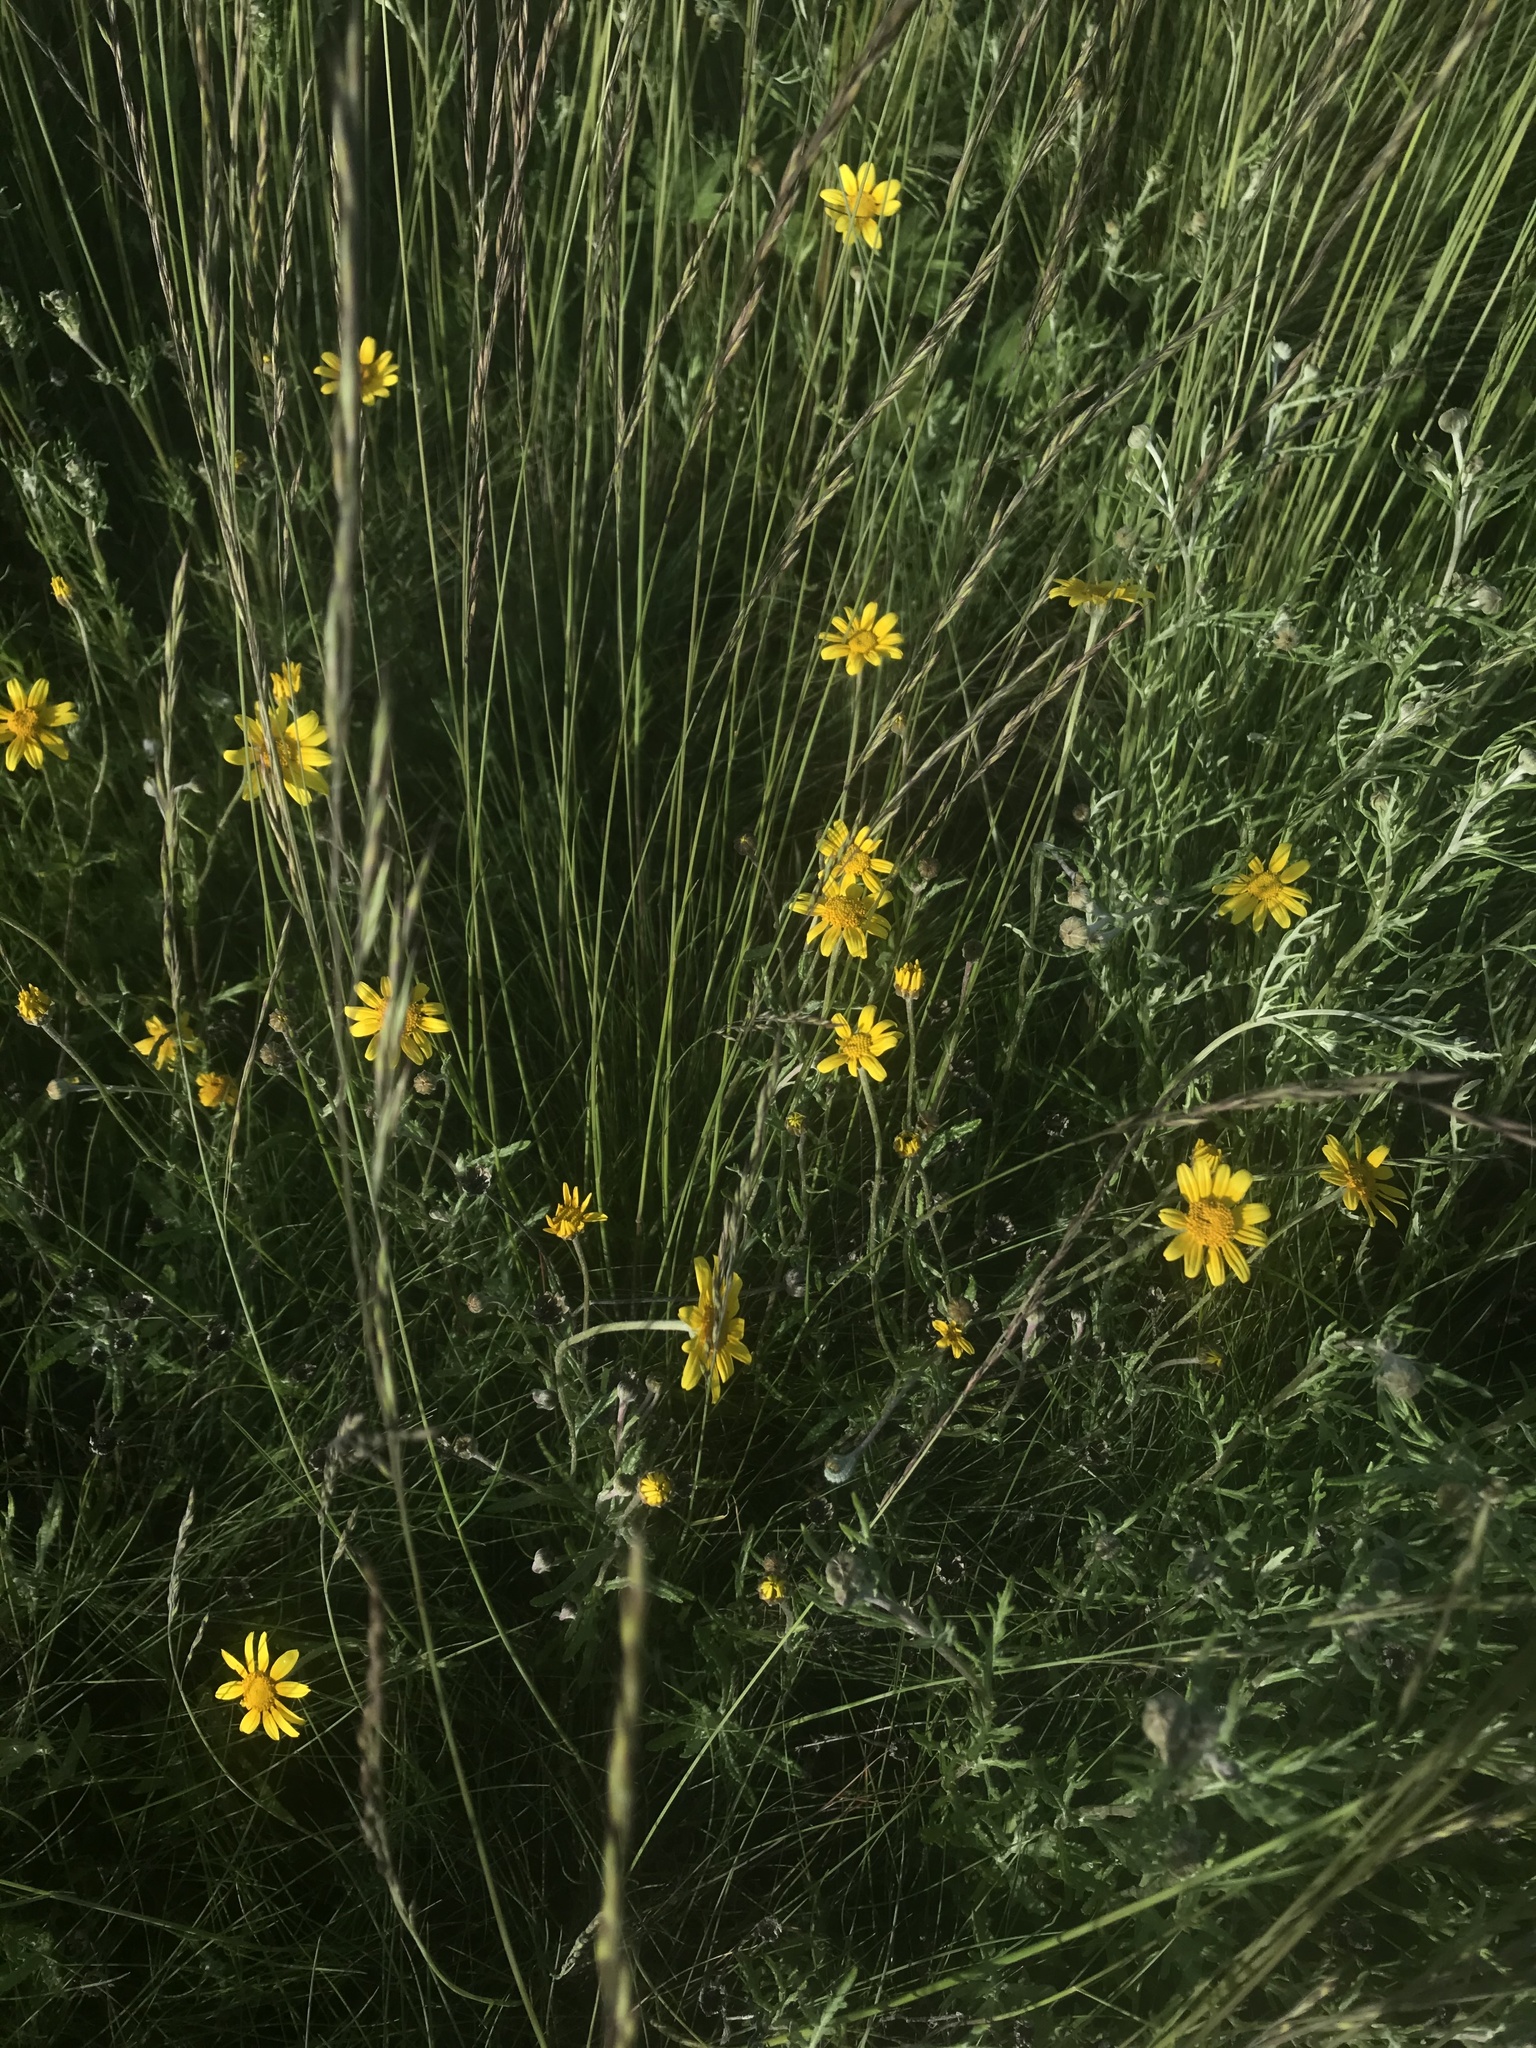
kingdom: Plantae
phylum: Tracheophyta
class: Magnoliopsida
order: Asterales
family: Asteraceae
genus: Eriophyllum
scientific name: Eriophyllum lanatum
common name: Common woolly-sunflower
